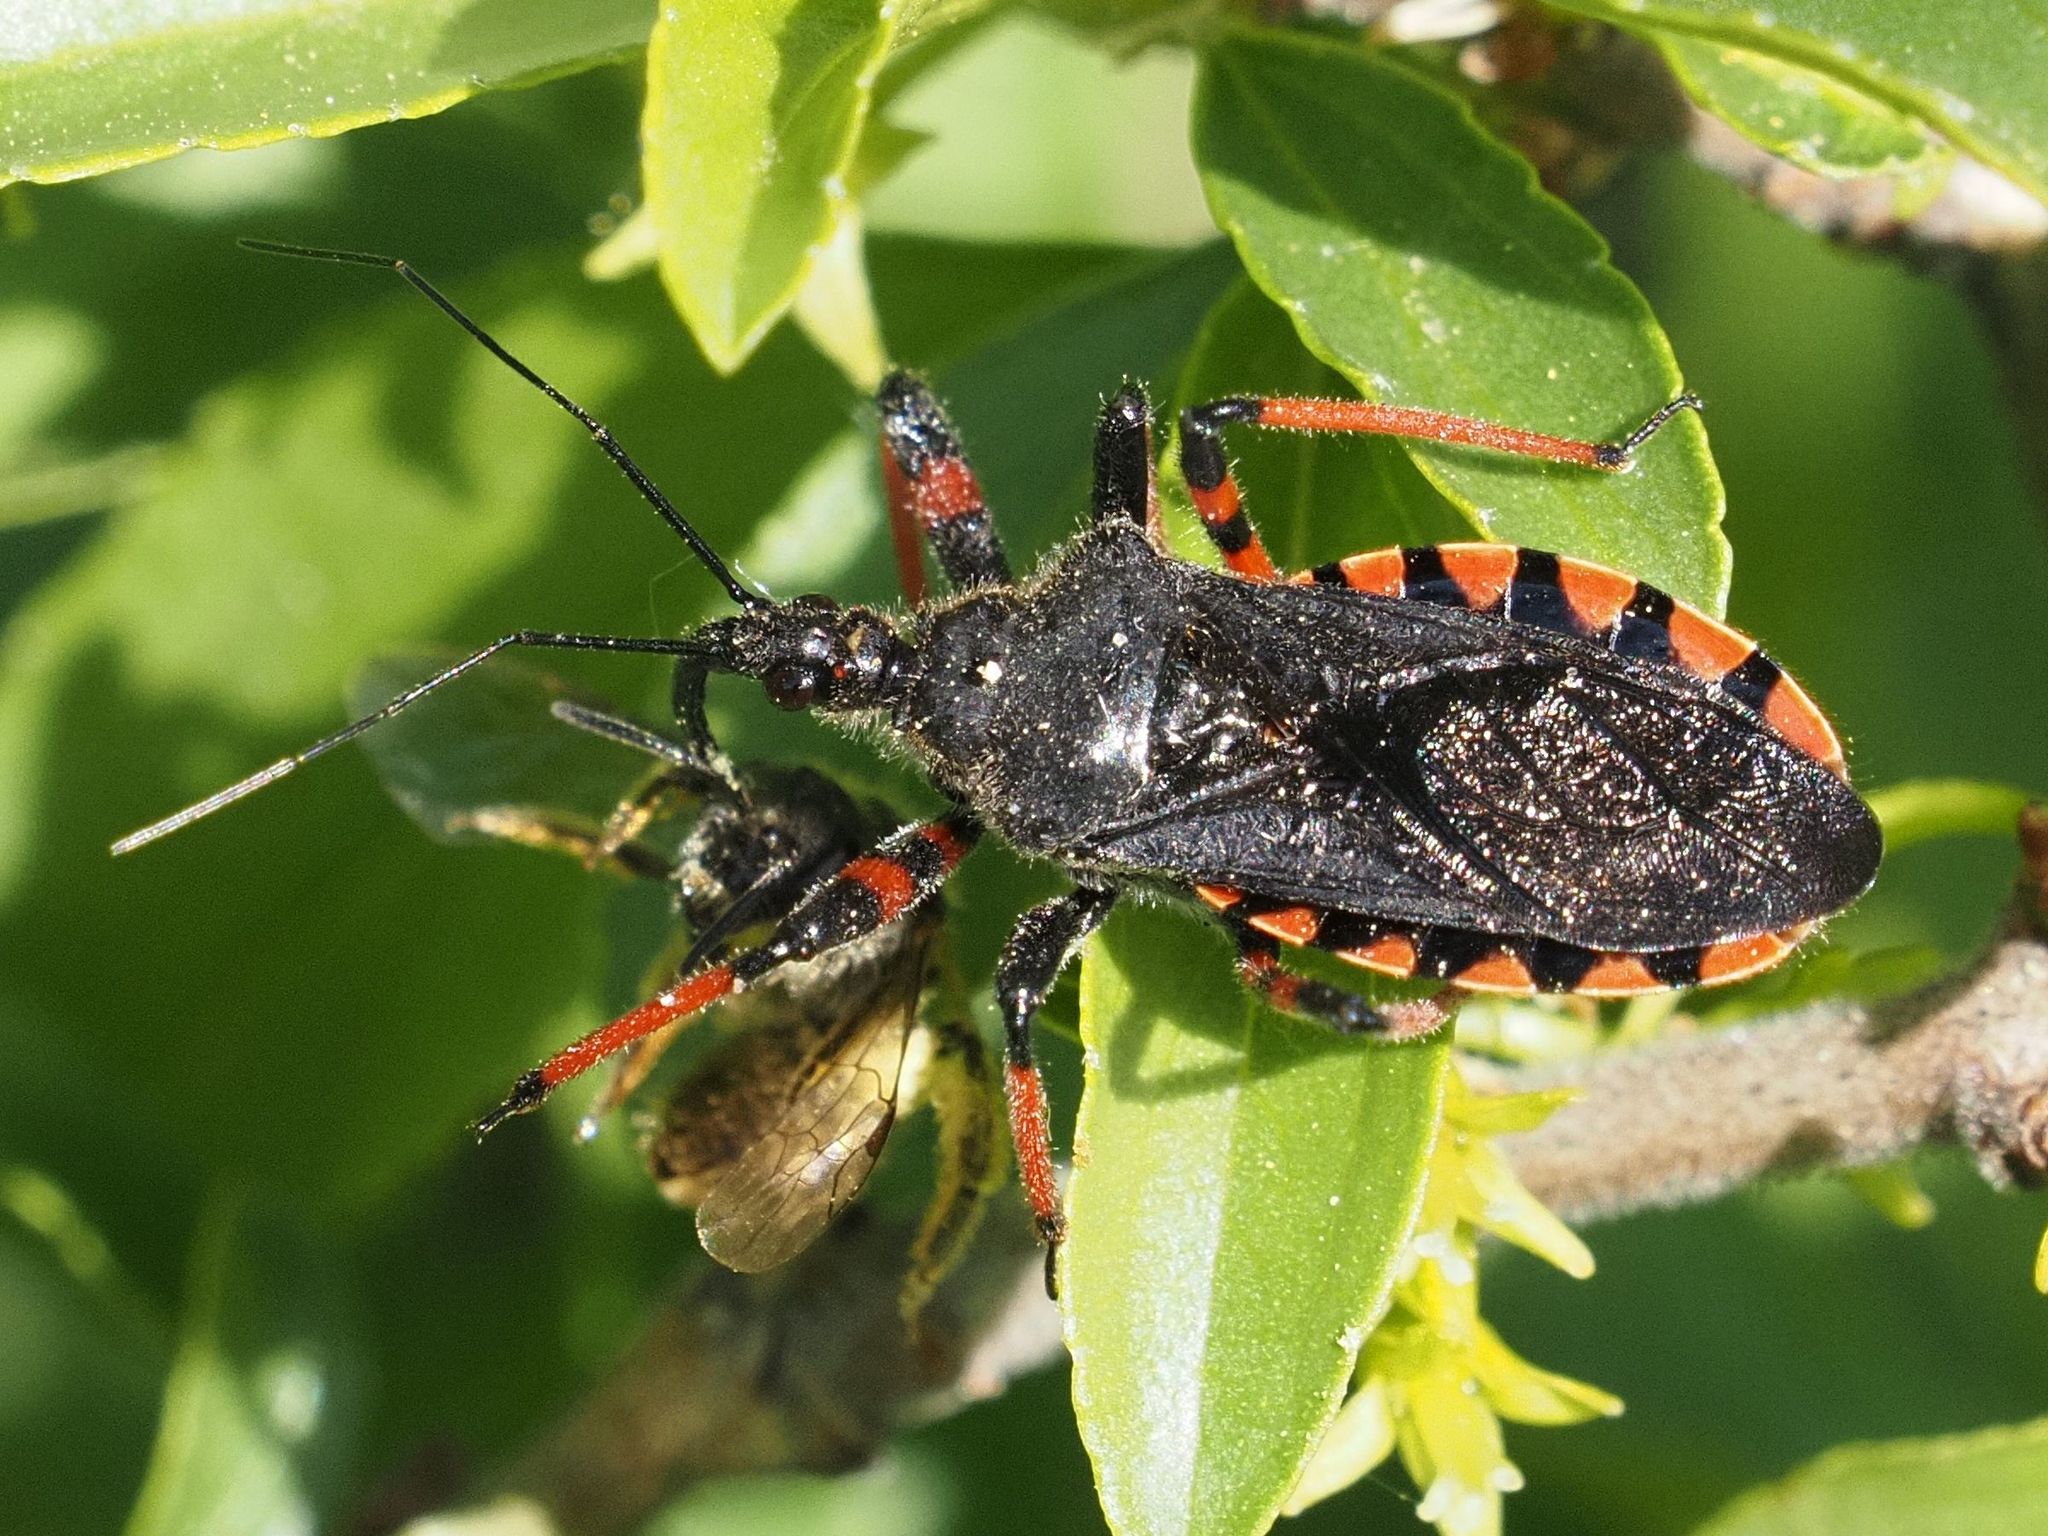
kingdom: Animalia
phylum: Arthropoda
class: Insecta
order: Hemiptera
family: Reduviidae
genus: Rhynocoris
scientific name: Rhynocoris annulatus
